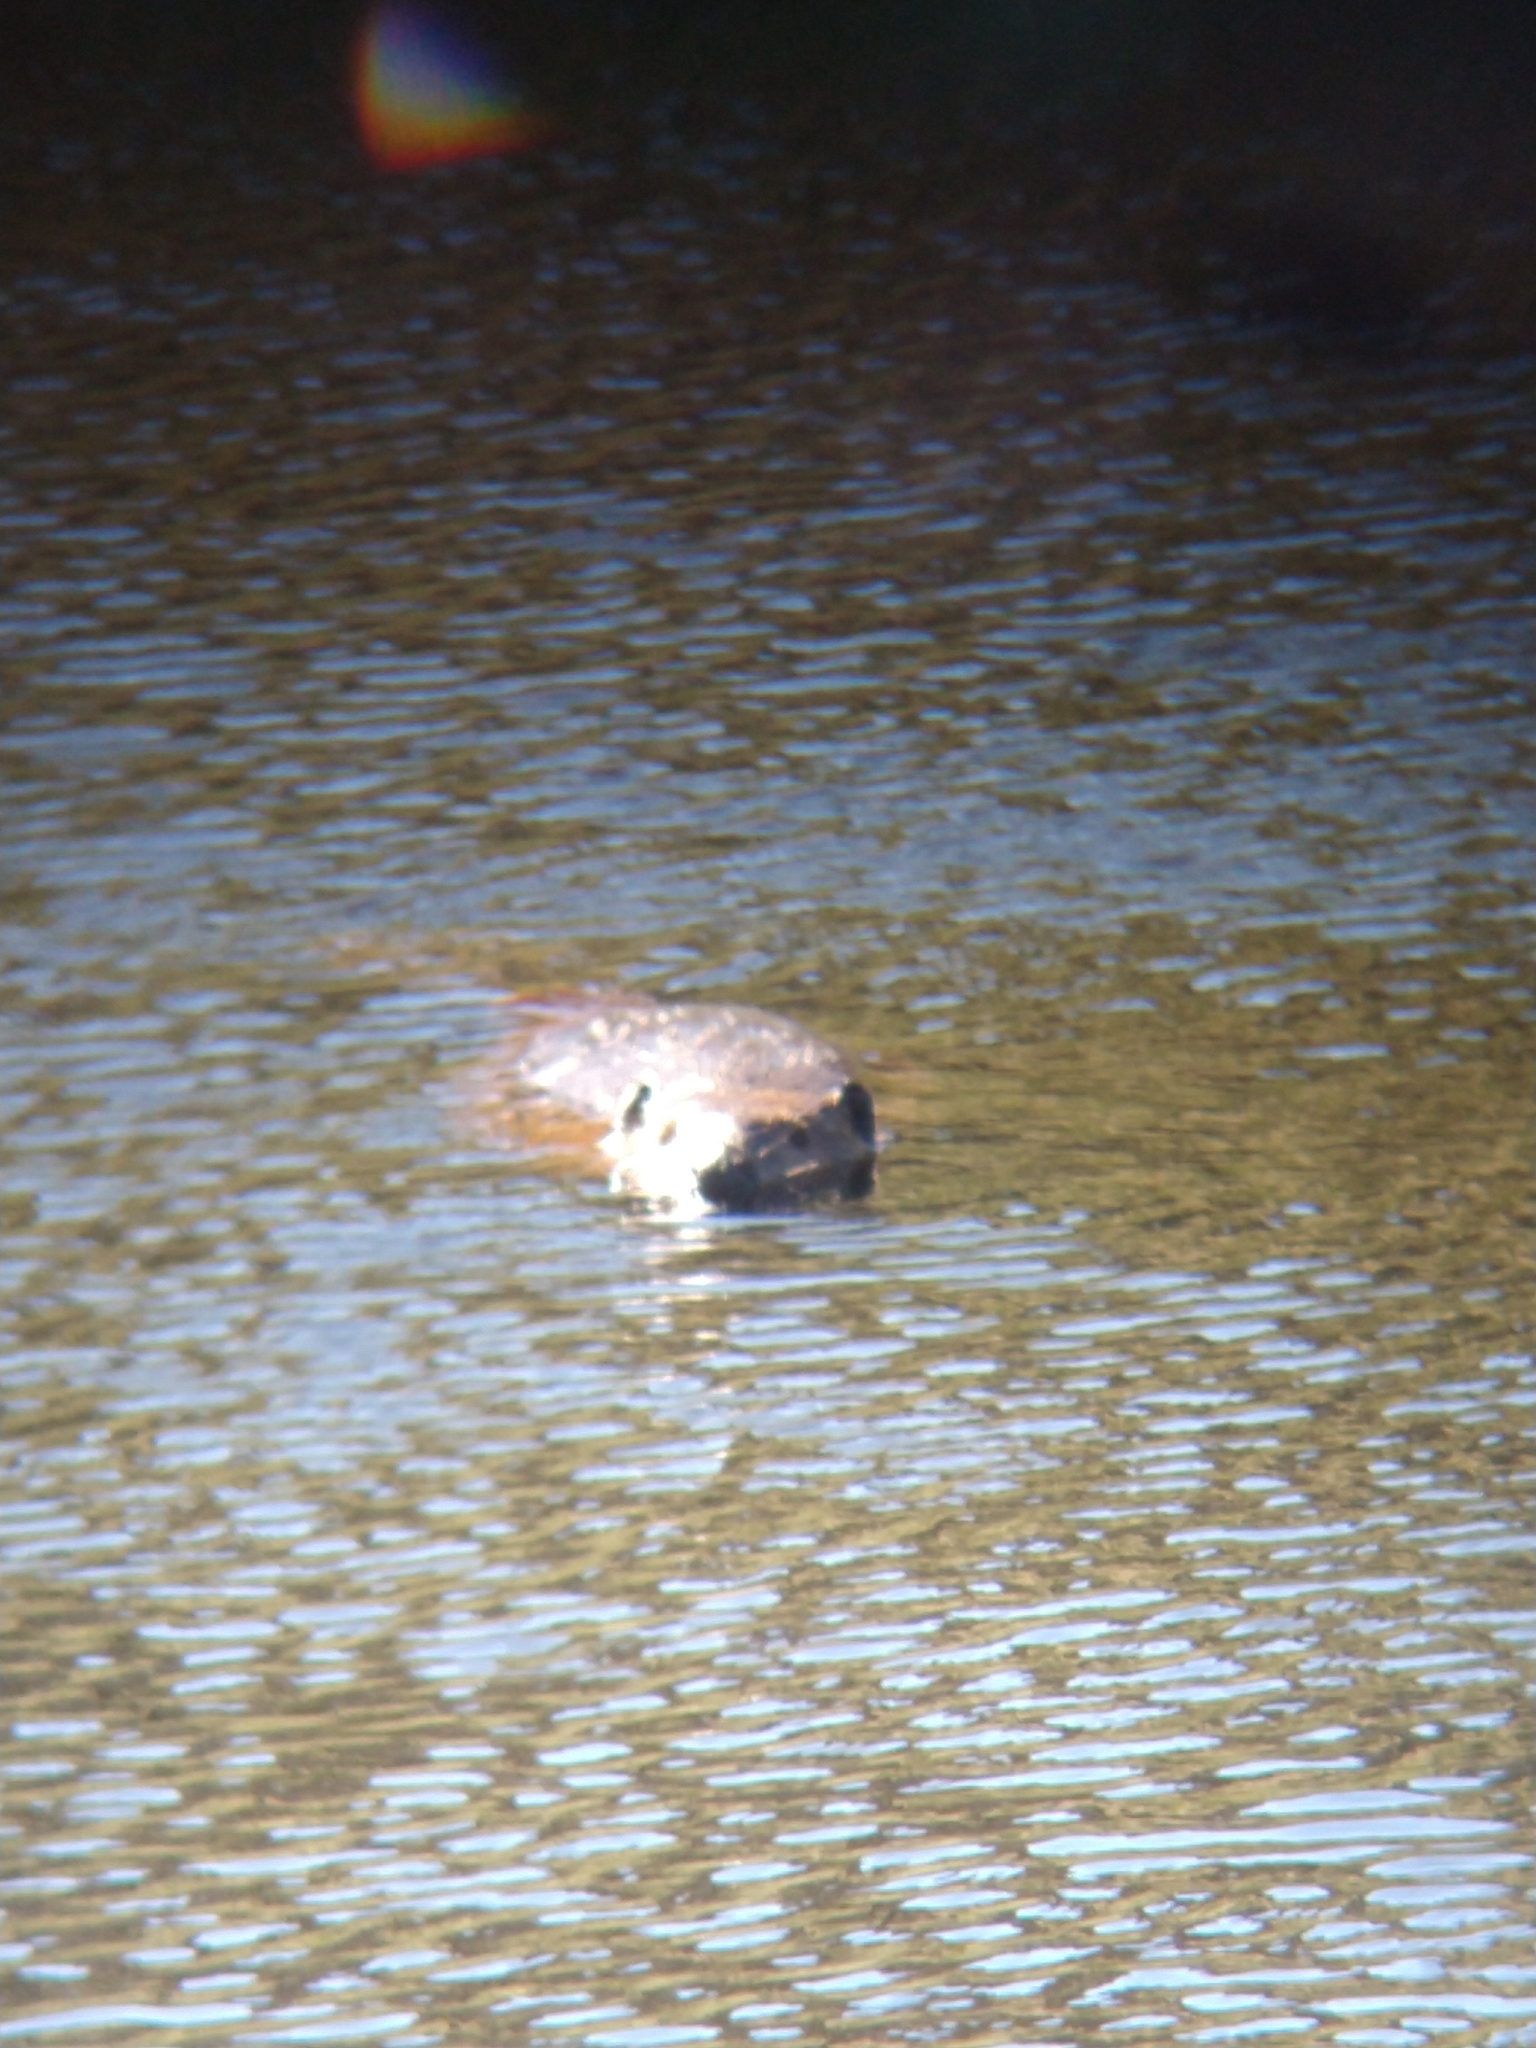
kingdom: Animalia
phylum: Chordata
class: Mammalia
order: Rodentia
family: Castoridae
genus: Castor
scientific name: Castor canadensis
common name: American beaver
